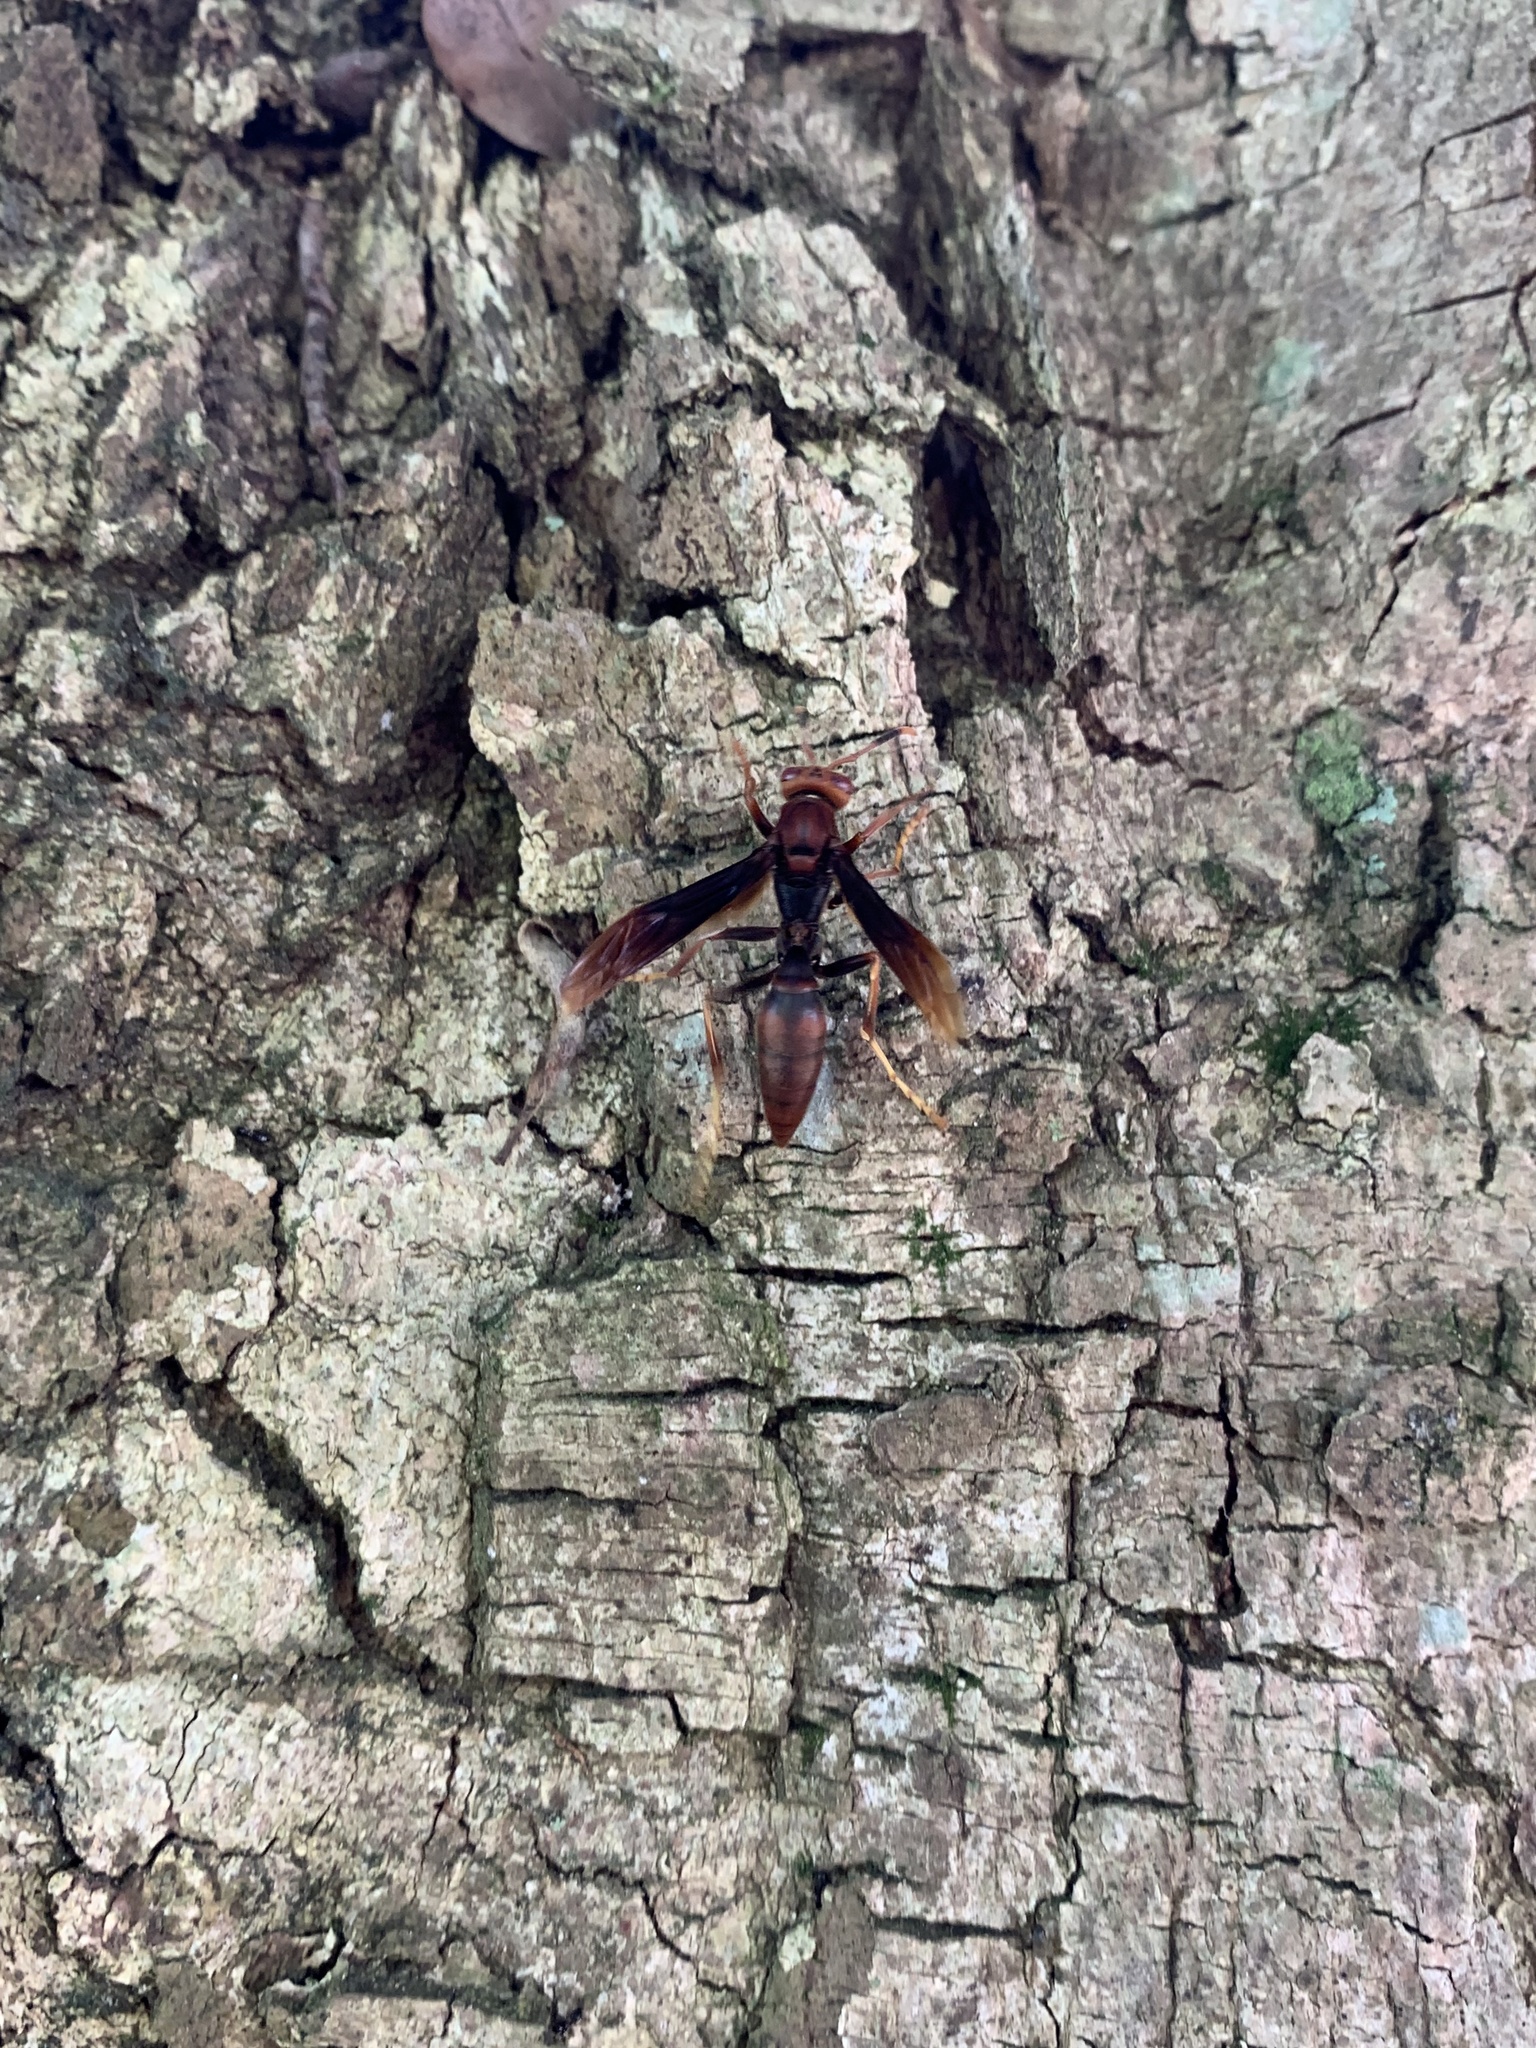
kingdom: Animalia
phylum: Arthropoda
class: Insecta
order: Hymenoptera
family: Eumenidae
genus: Polistes
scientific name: Polistes lanio
